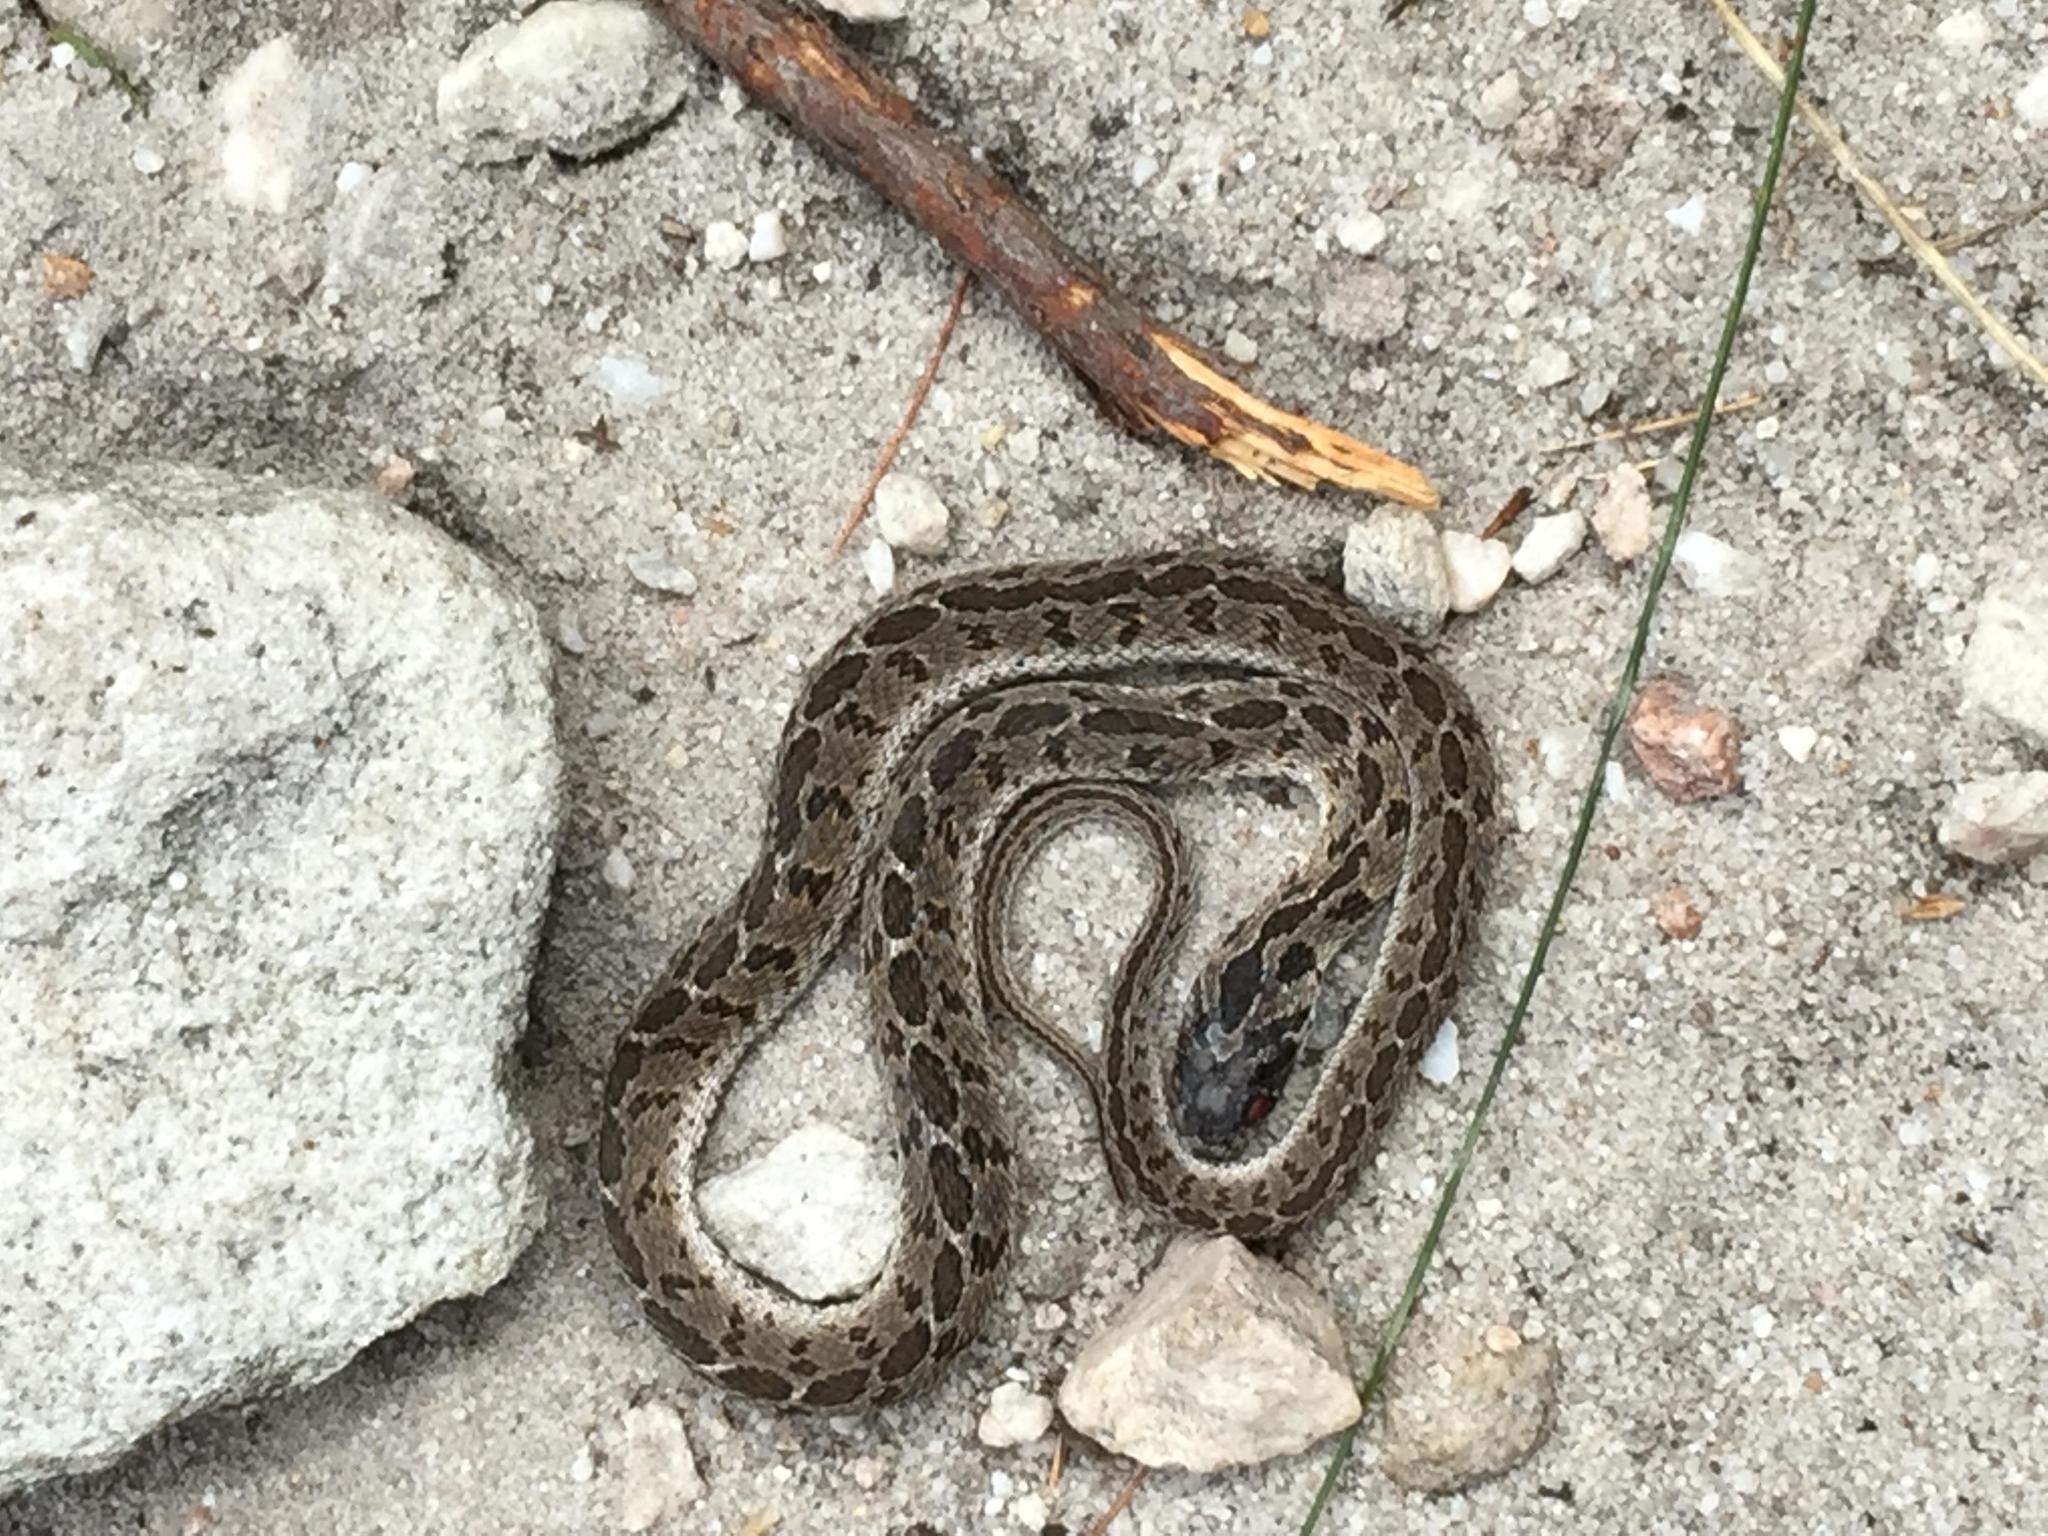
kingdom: Animalia
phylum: Chordata
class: Squamata
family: Colubridae
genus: Dasypeltis
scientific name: Dasypeltis scabra
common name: Common egg eater
